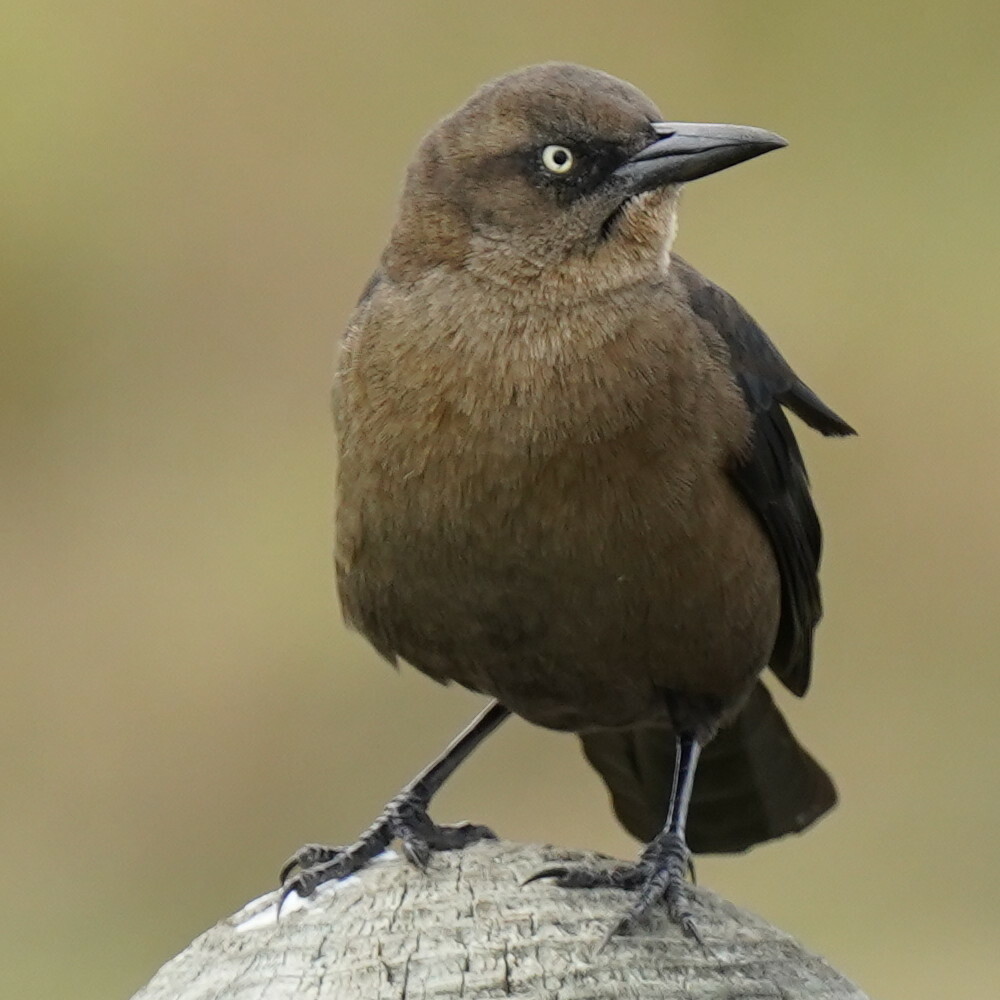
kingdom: Animalia
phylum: Chordata
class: Aves
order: Passeriformes
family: Icteridae
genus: Quiscalus
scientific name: Quiscalus major
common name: Boat-tailed grackle
